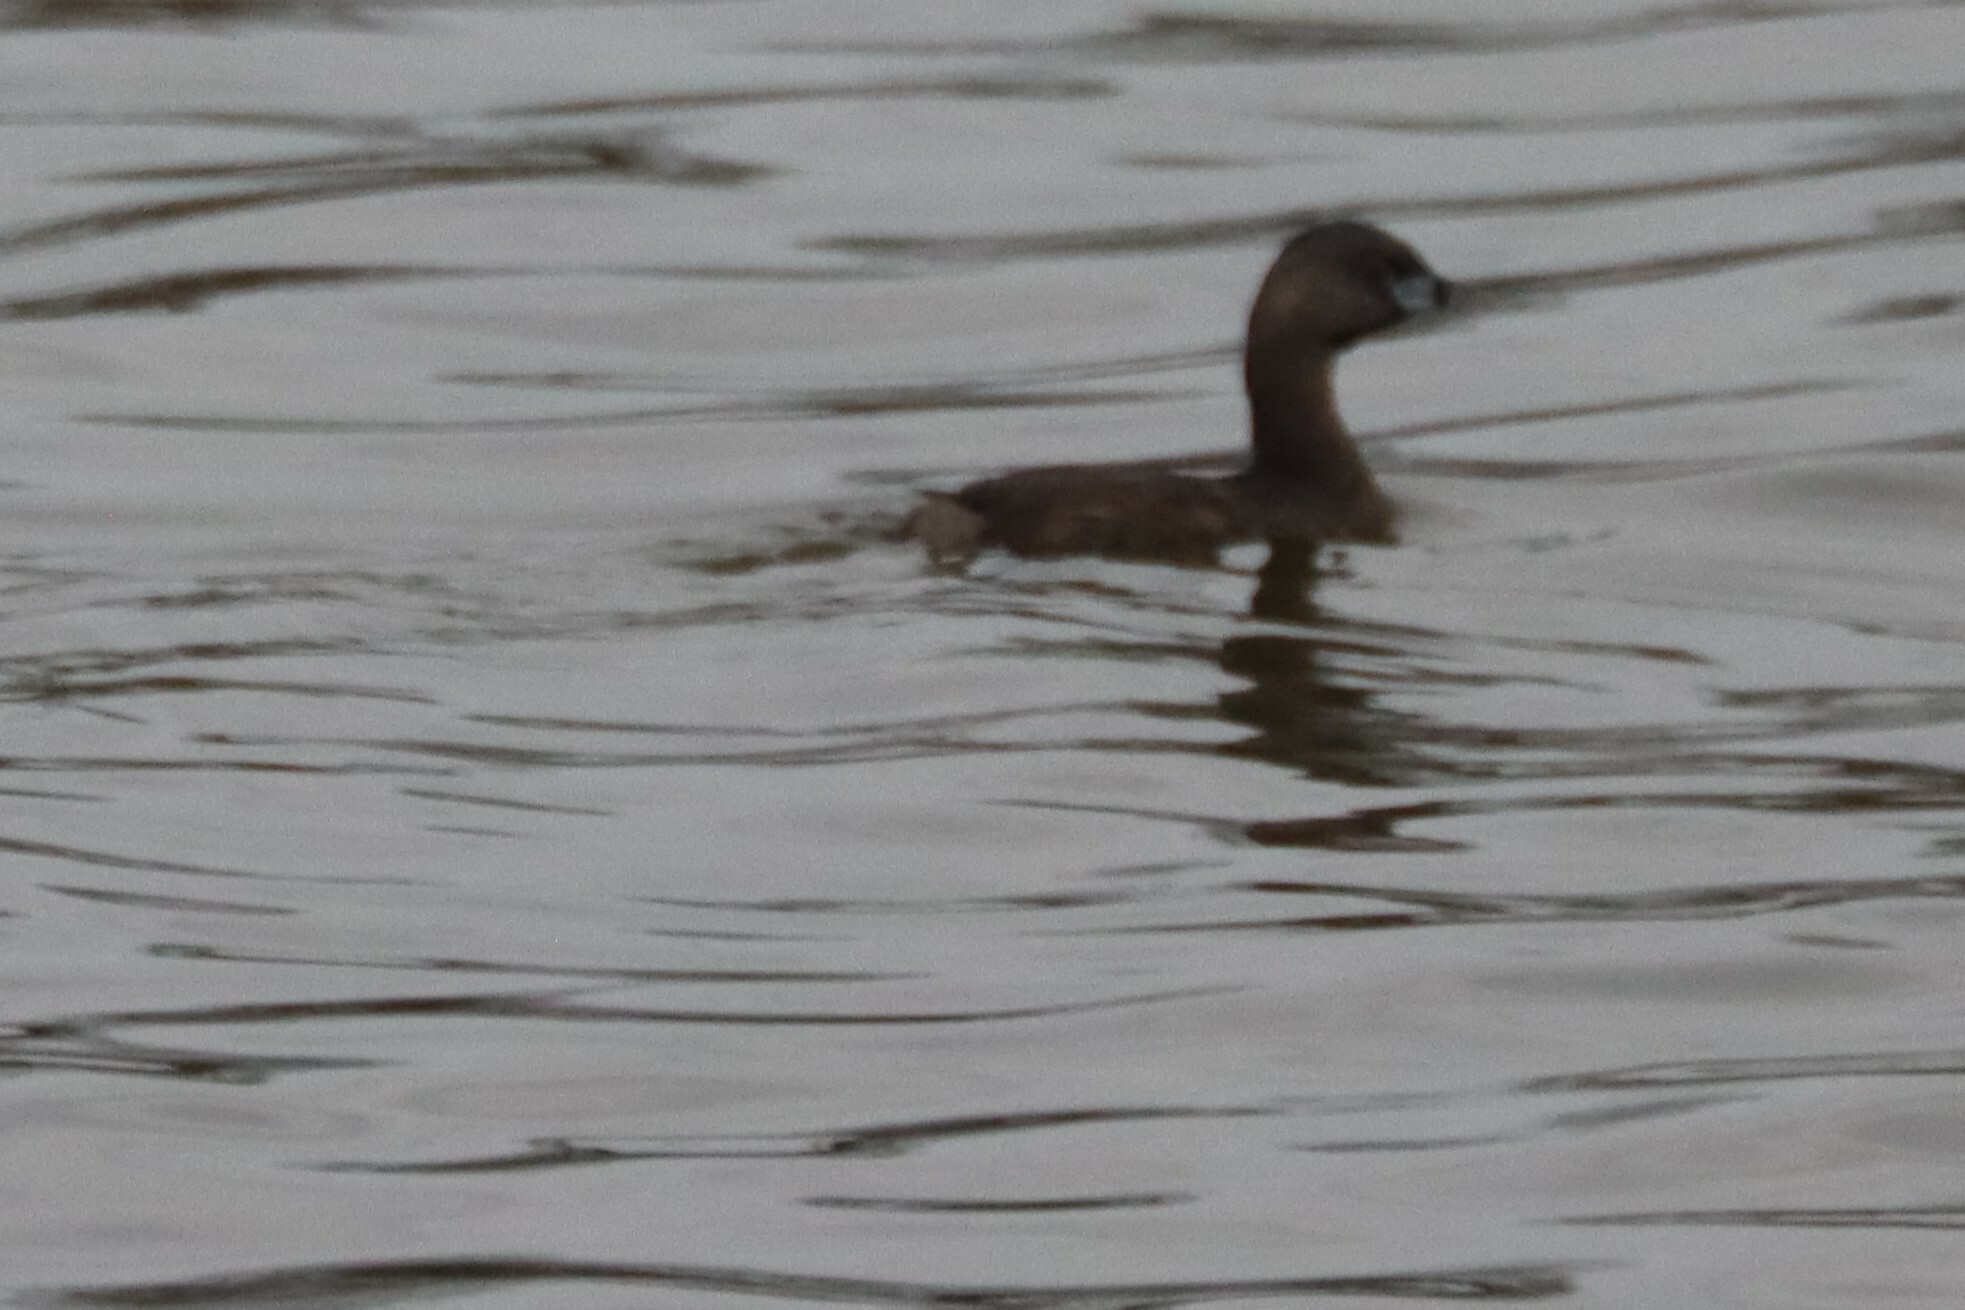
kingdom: Animalia
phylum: Chordata
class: Aves
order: Podicipediformes
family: Podicipedidae
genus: Podilymbus
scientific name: Podilymbus podiceps
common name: Pied-billed grebe
